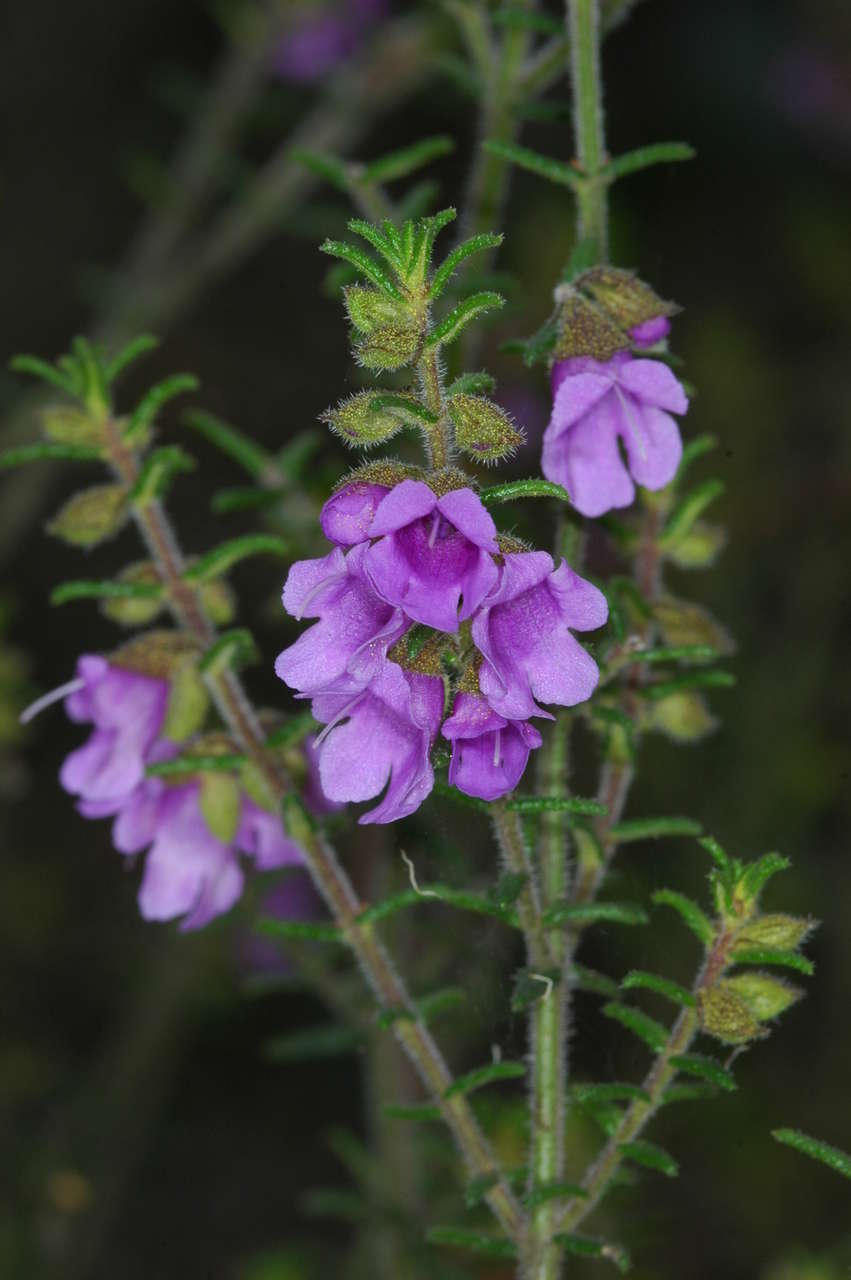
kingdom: Plantae
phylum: Tracheophyta
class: Magnoliopsida
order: Lamiales
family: Lamiaceae
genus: Prostanthera
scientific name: Prostanthera decussata
